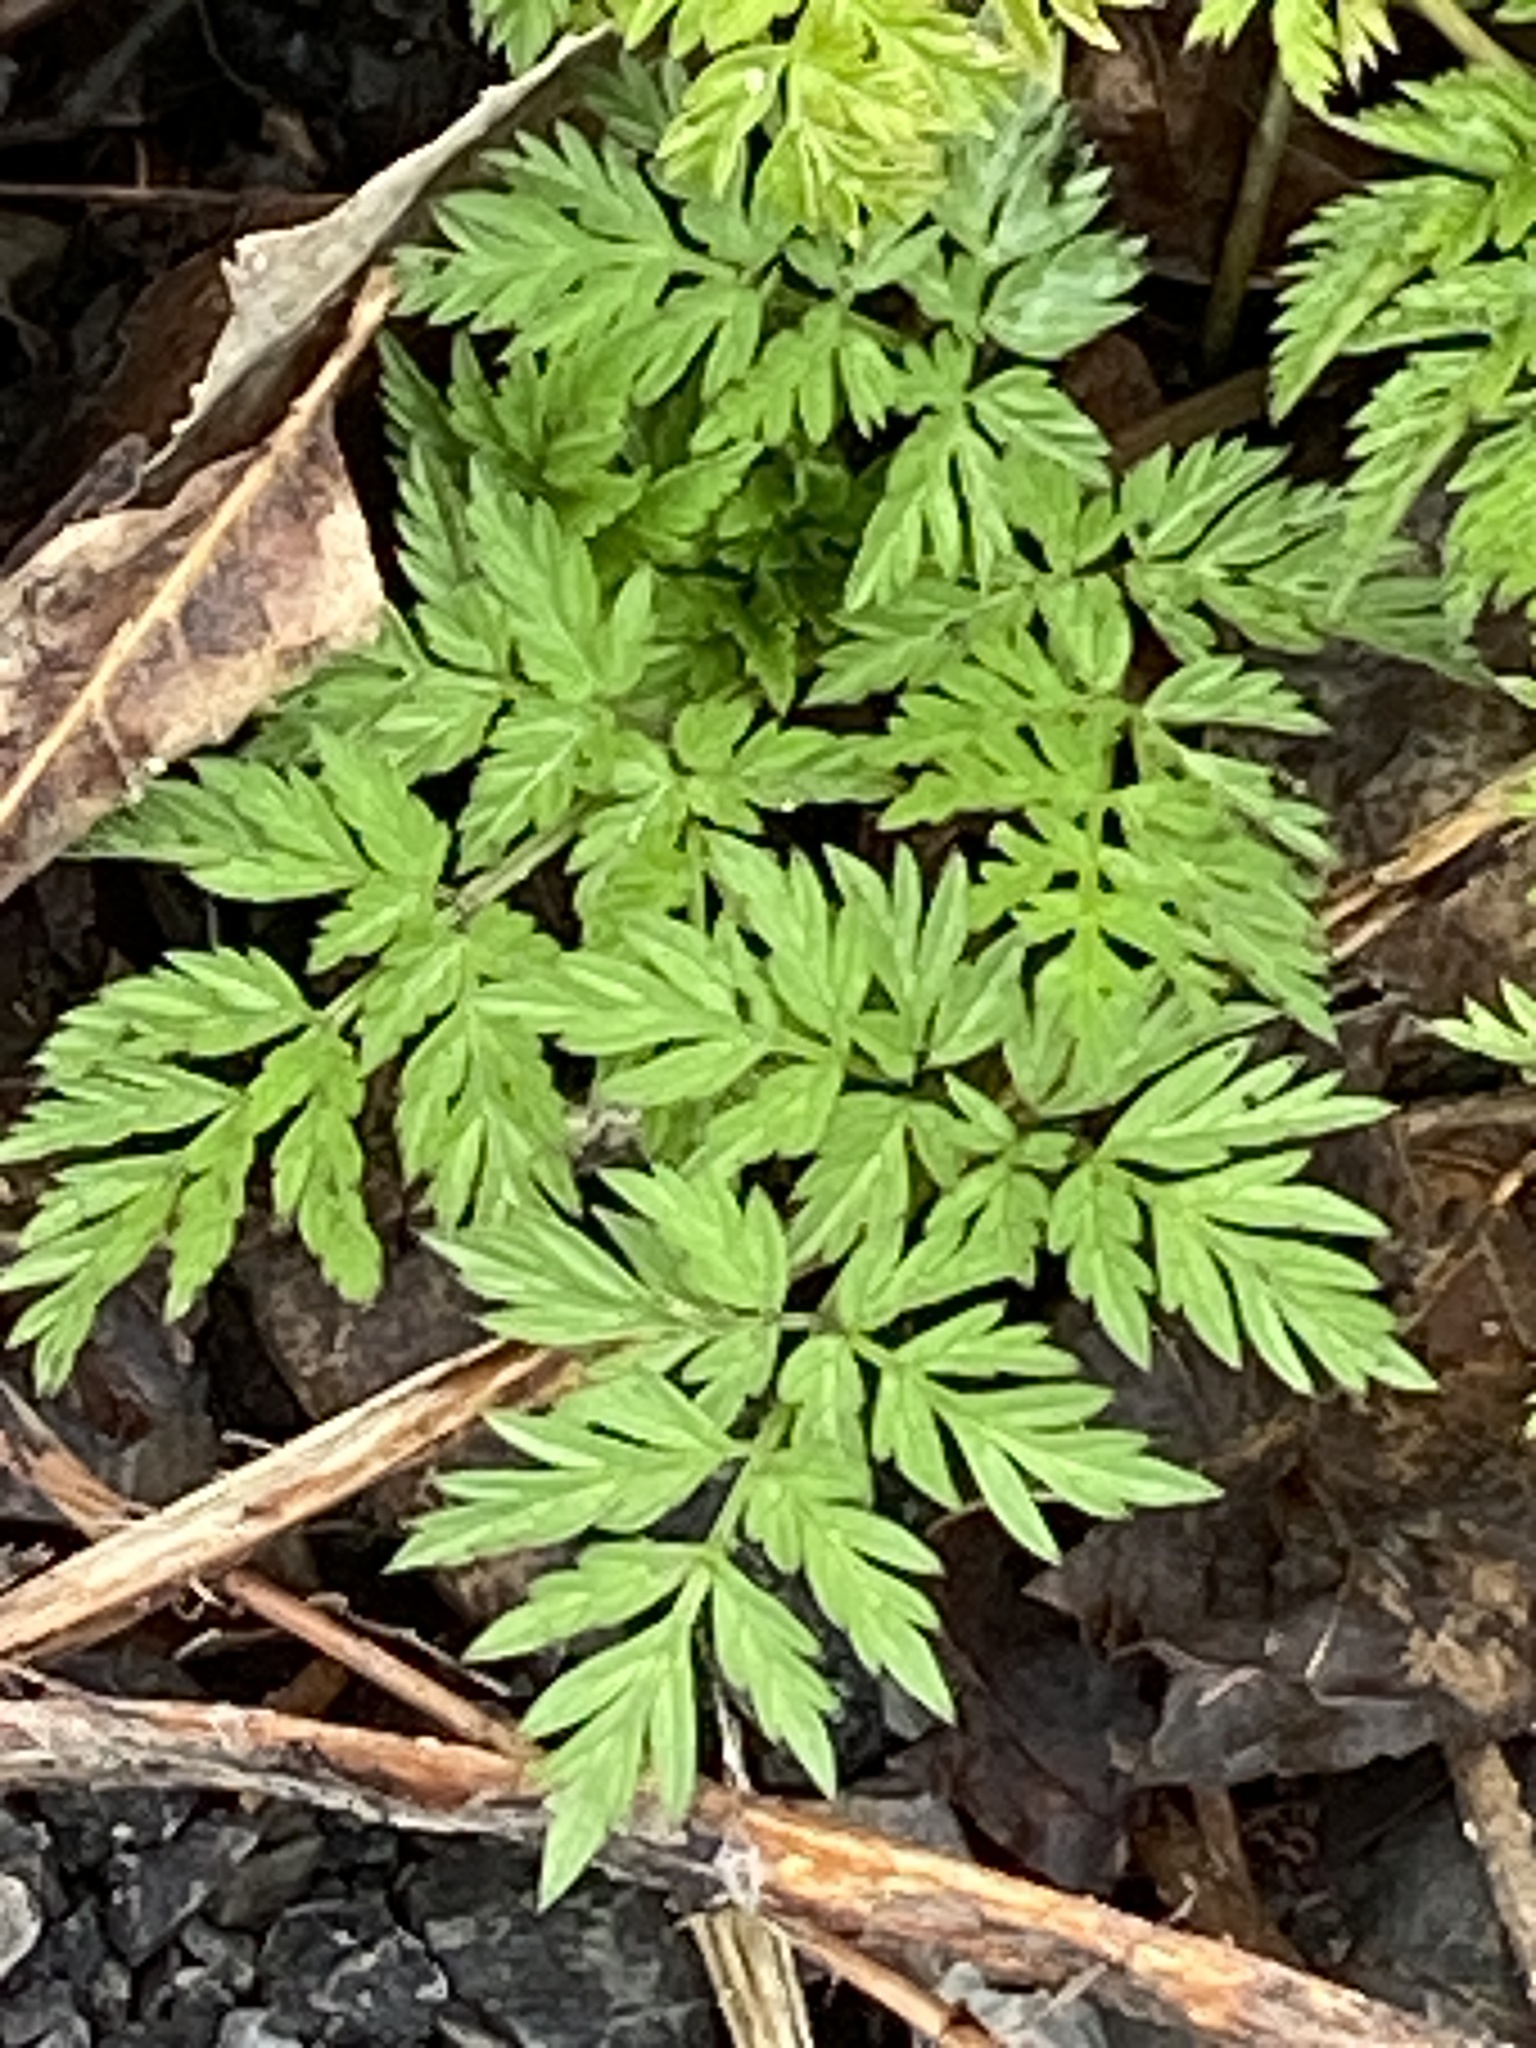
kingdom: Plantae
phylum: Tracheophyta
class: Magnoliopsida
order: Apiales
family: Apiaceae
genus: Anthriscus
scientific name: Anthriscus sylvestris
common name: Cow parsley
